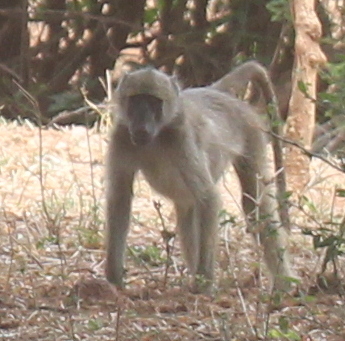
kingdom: Animalia
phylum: Chordata
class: Mammalia
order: Primates
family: Cercopithecidae
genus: Papio
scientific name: Papio ursinus
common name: Chacma baboon
